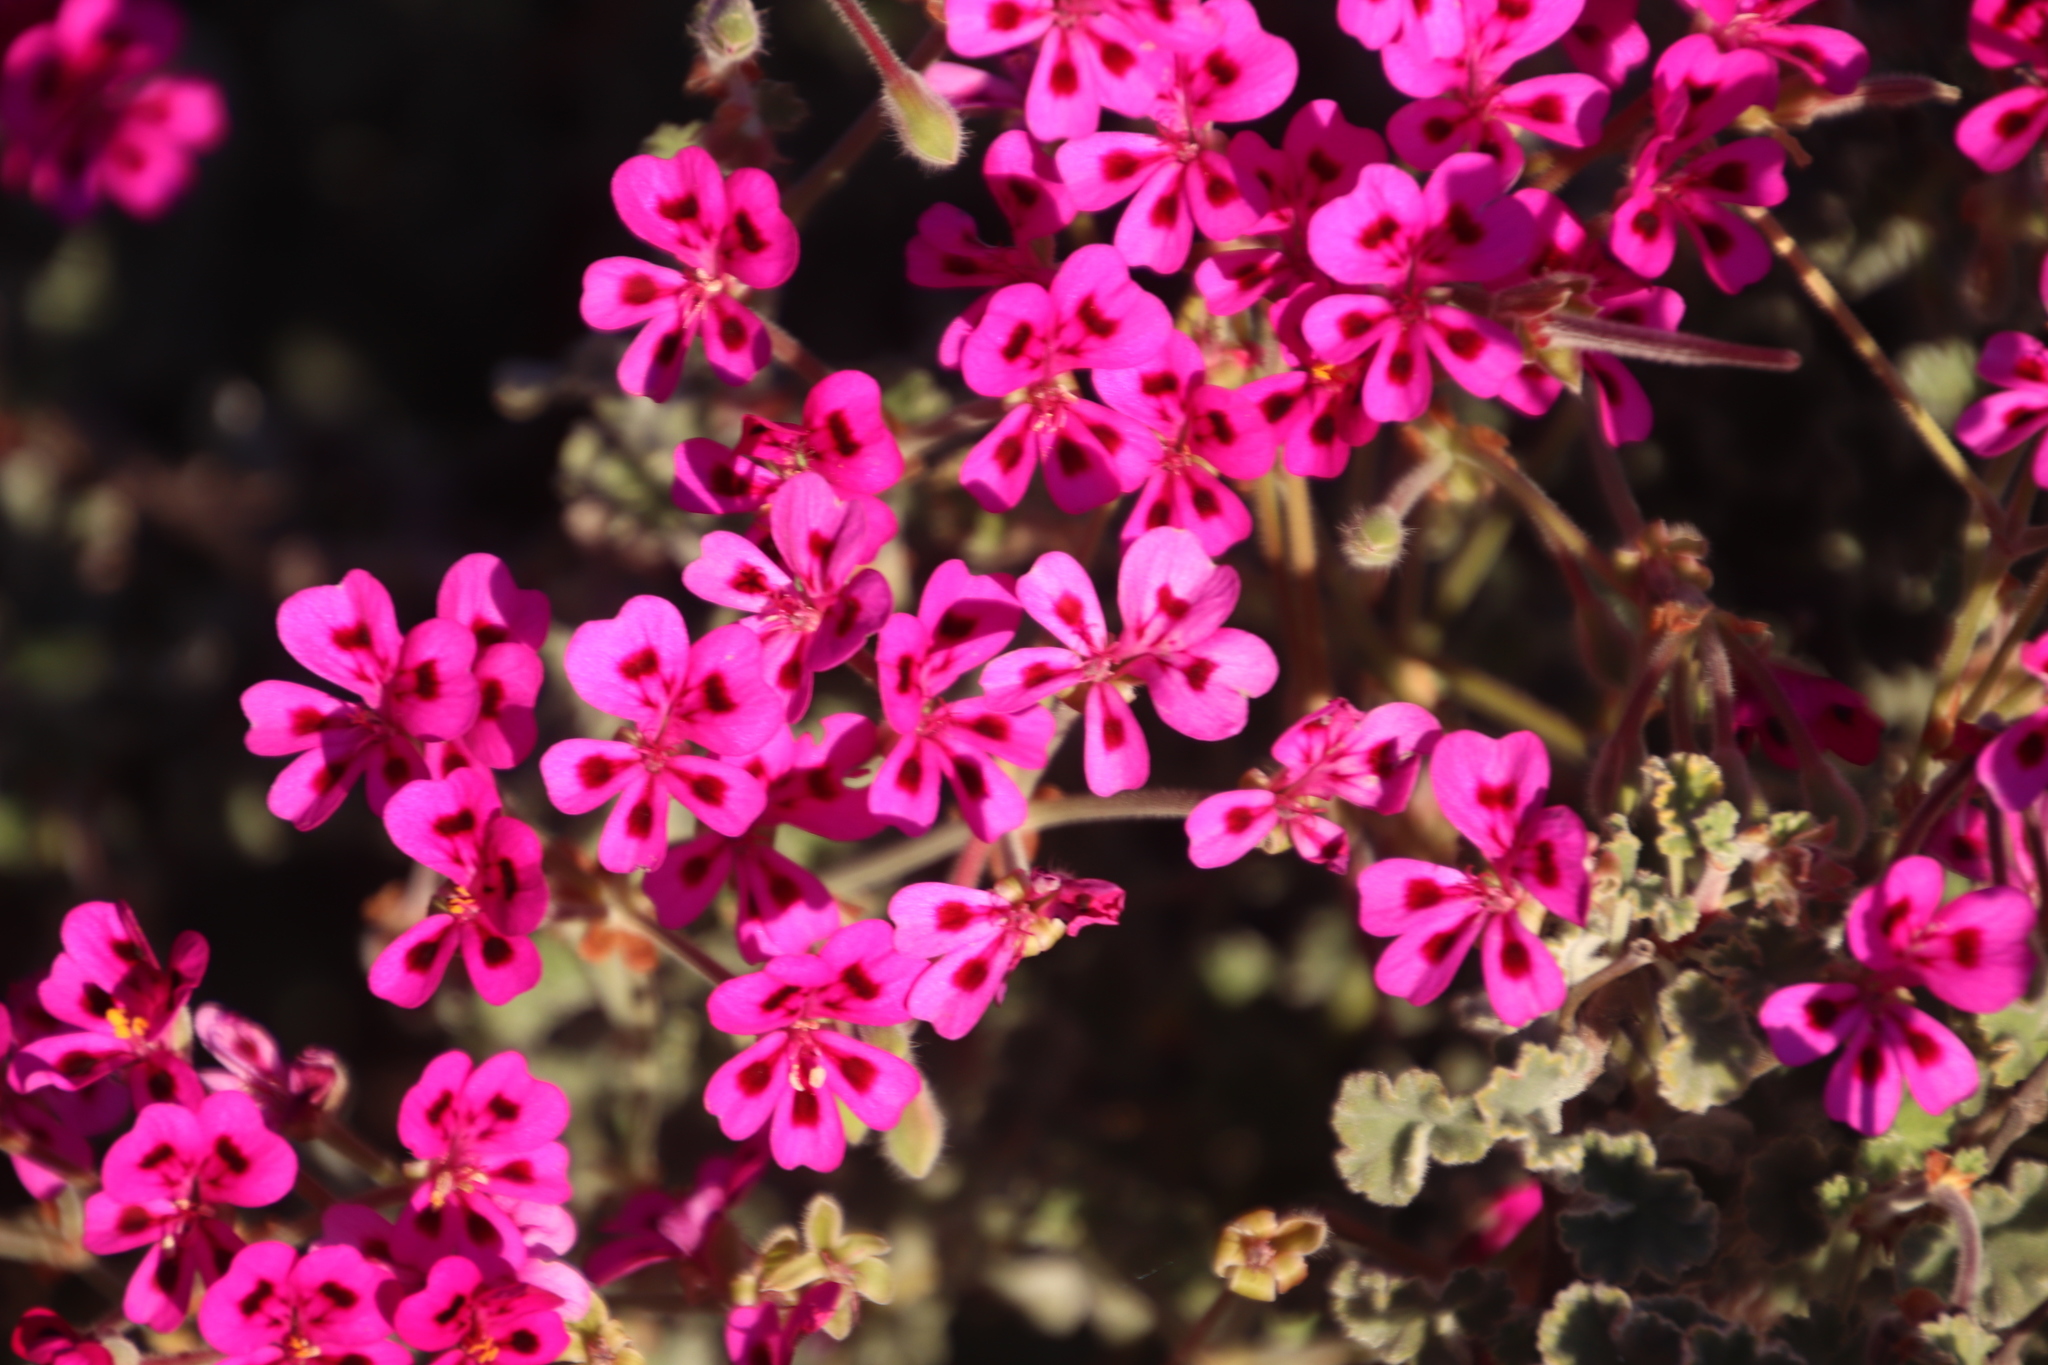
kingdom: Plantae
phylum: Tracheophyta
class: Magnoliopsida
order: Geraniales
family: Geraniaceae
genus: Pelargonium
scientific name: Pelargonium magenteum
